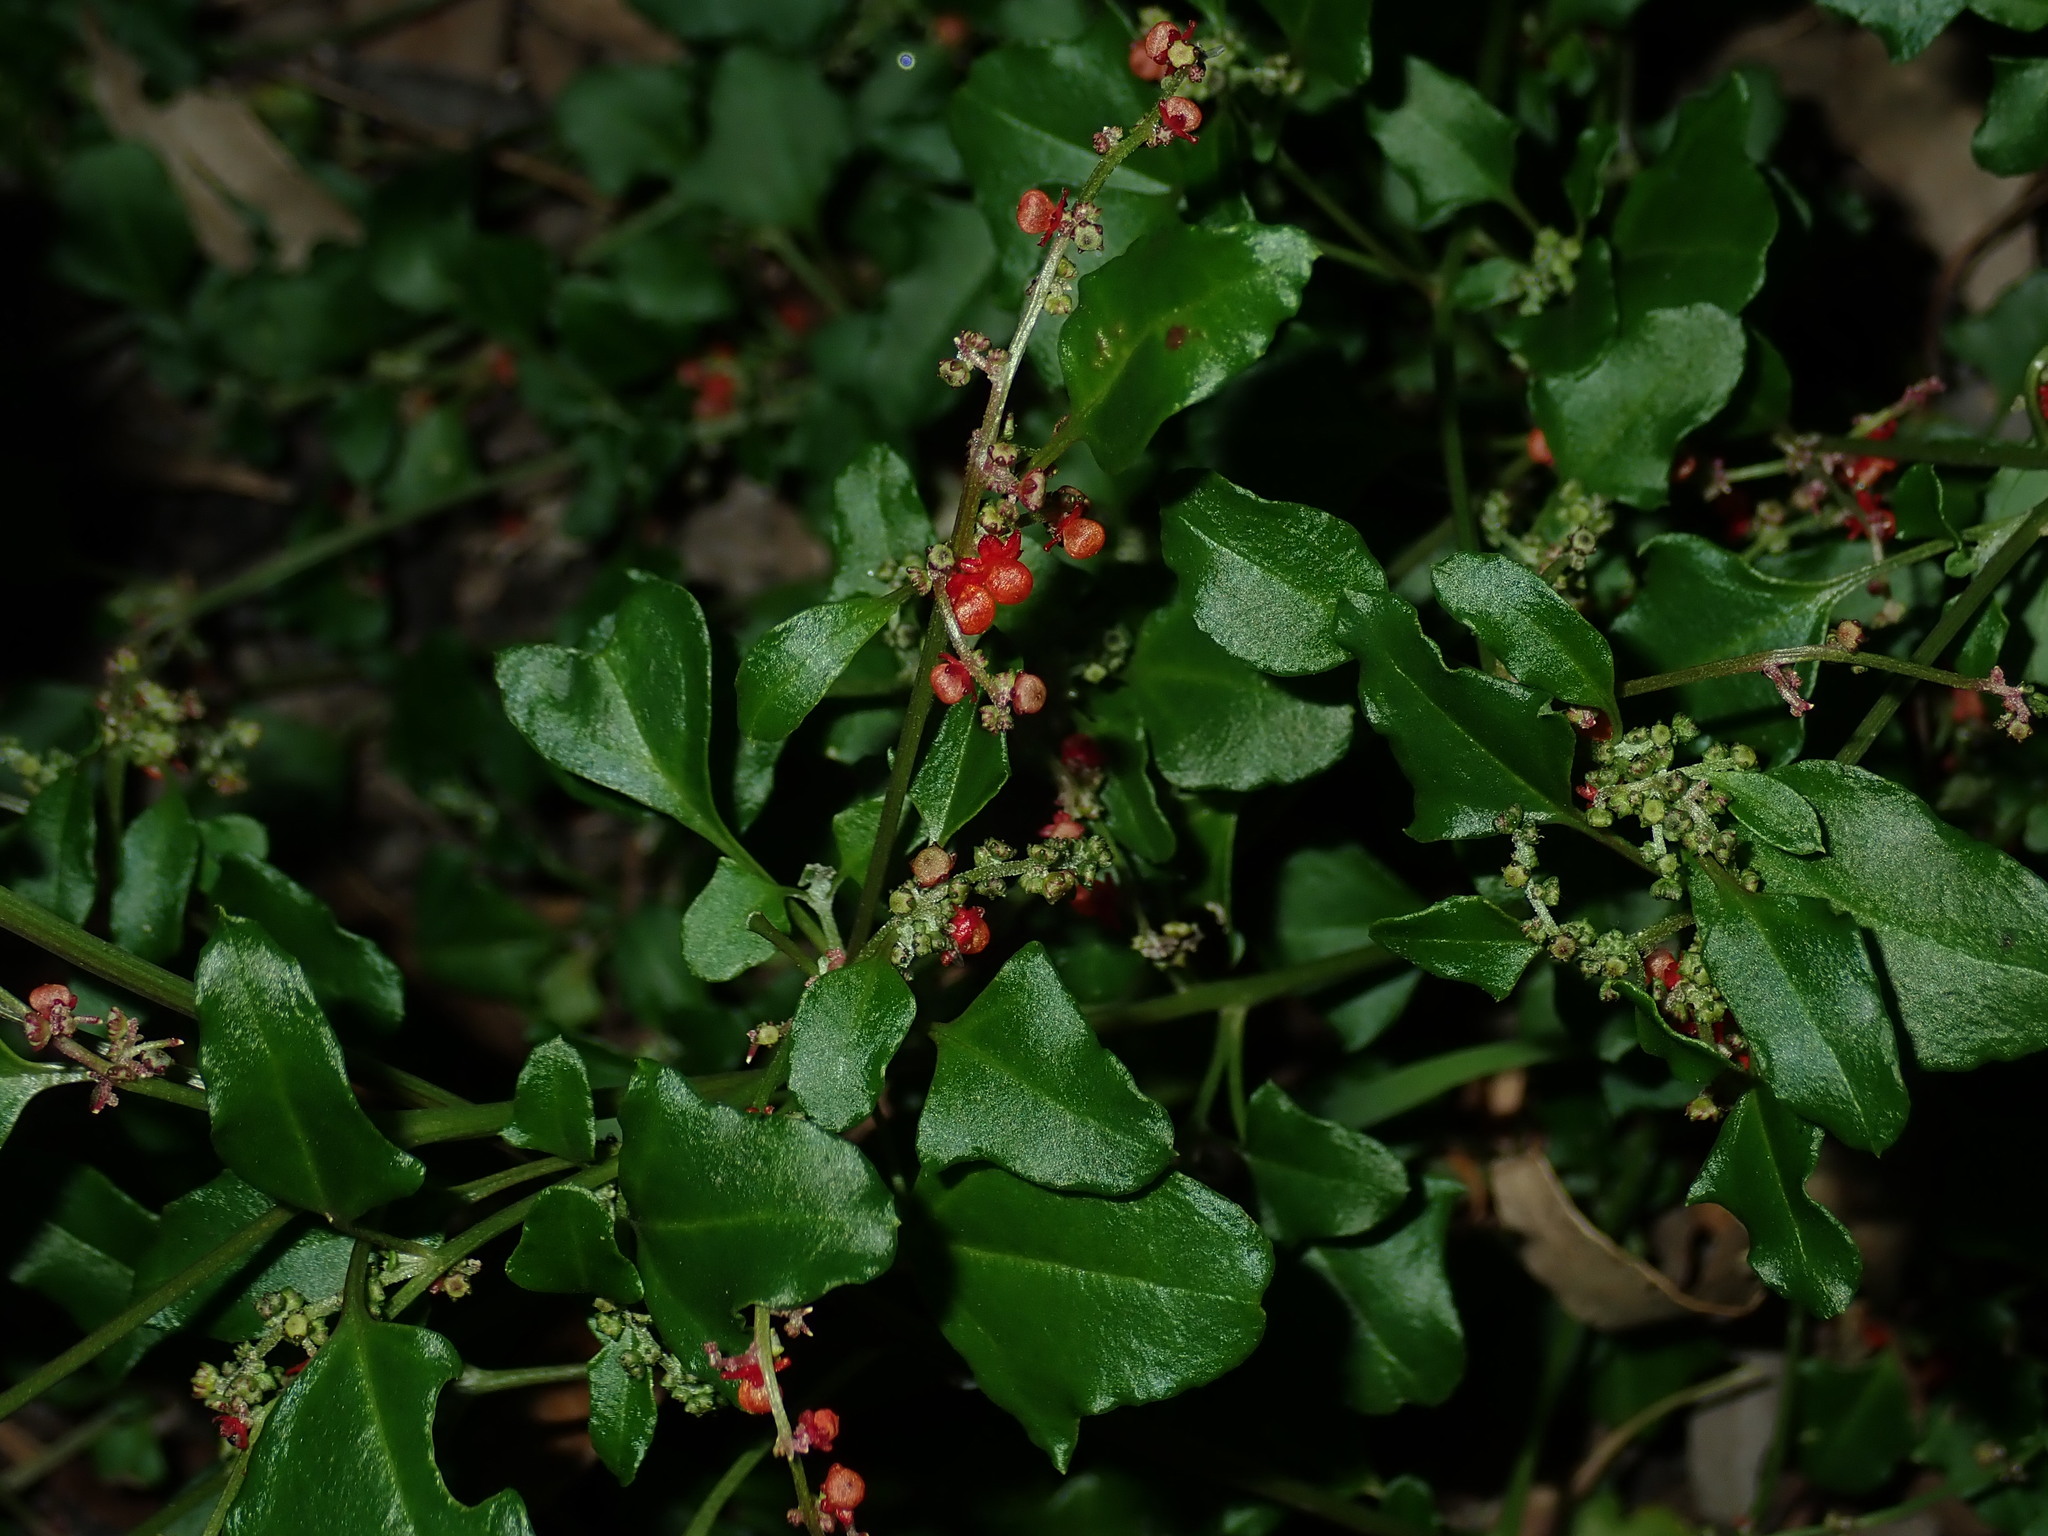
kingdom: Plantae
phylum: Tracheophyta
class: Magnoliopsida
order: Caryophyllales
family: Amaranthaceae
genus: Chenopodium
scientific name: Chenopodium robertianum
